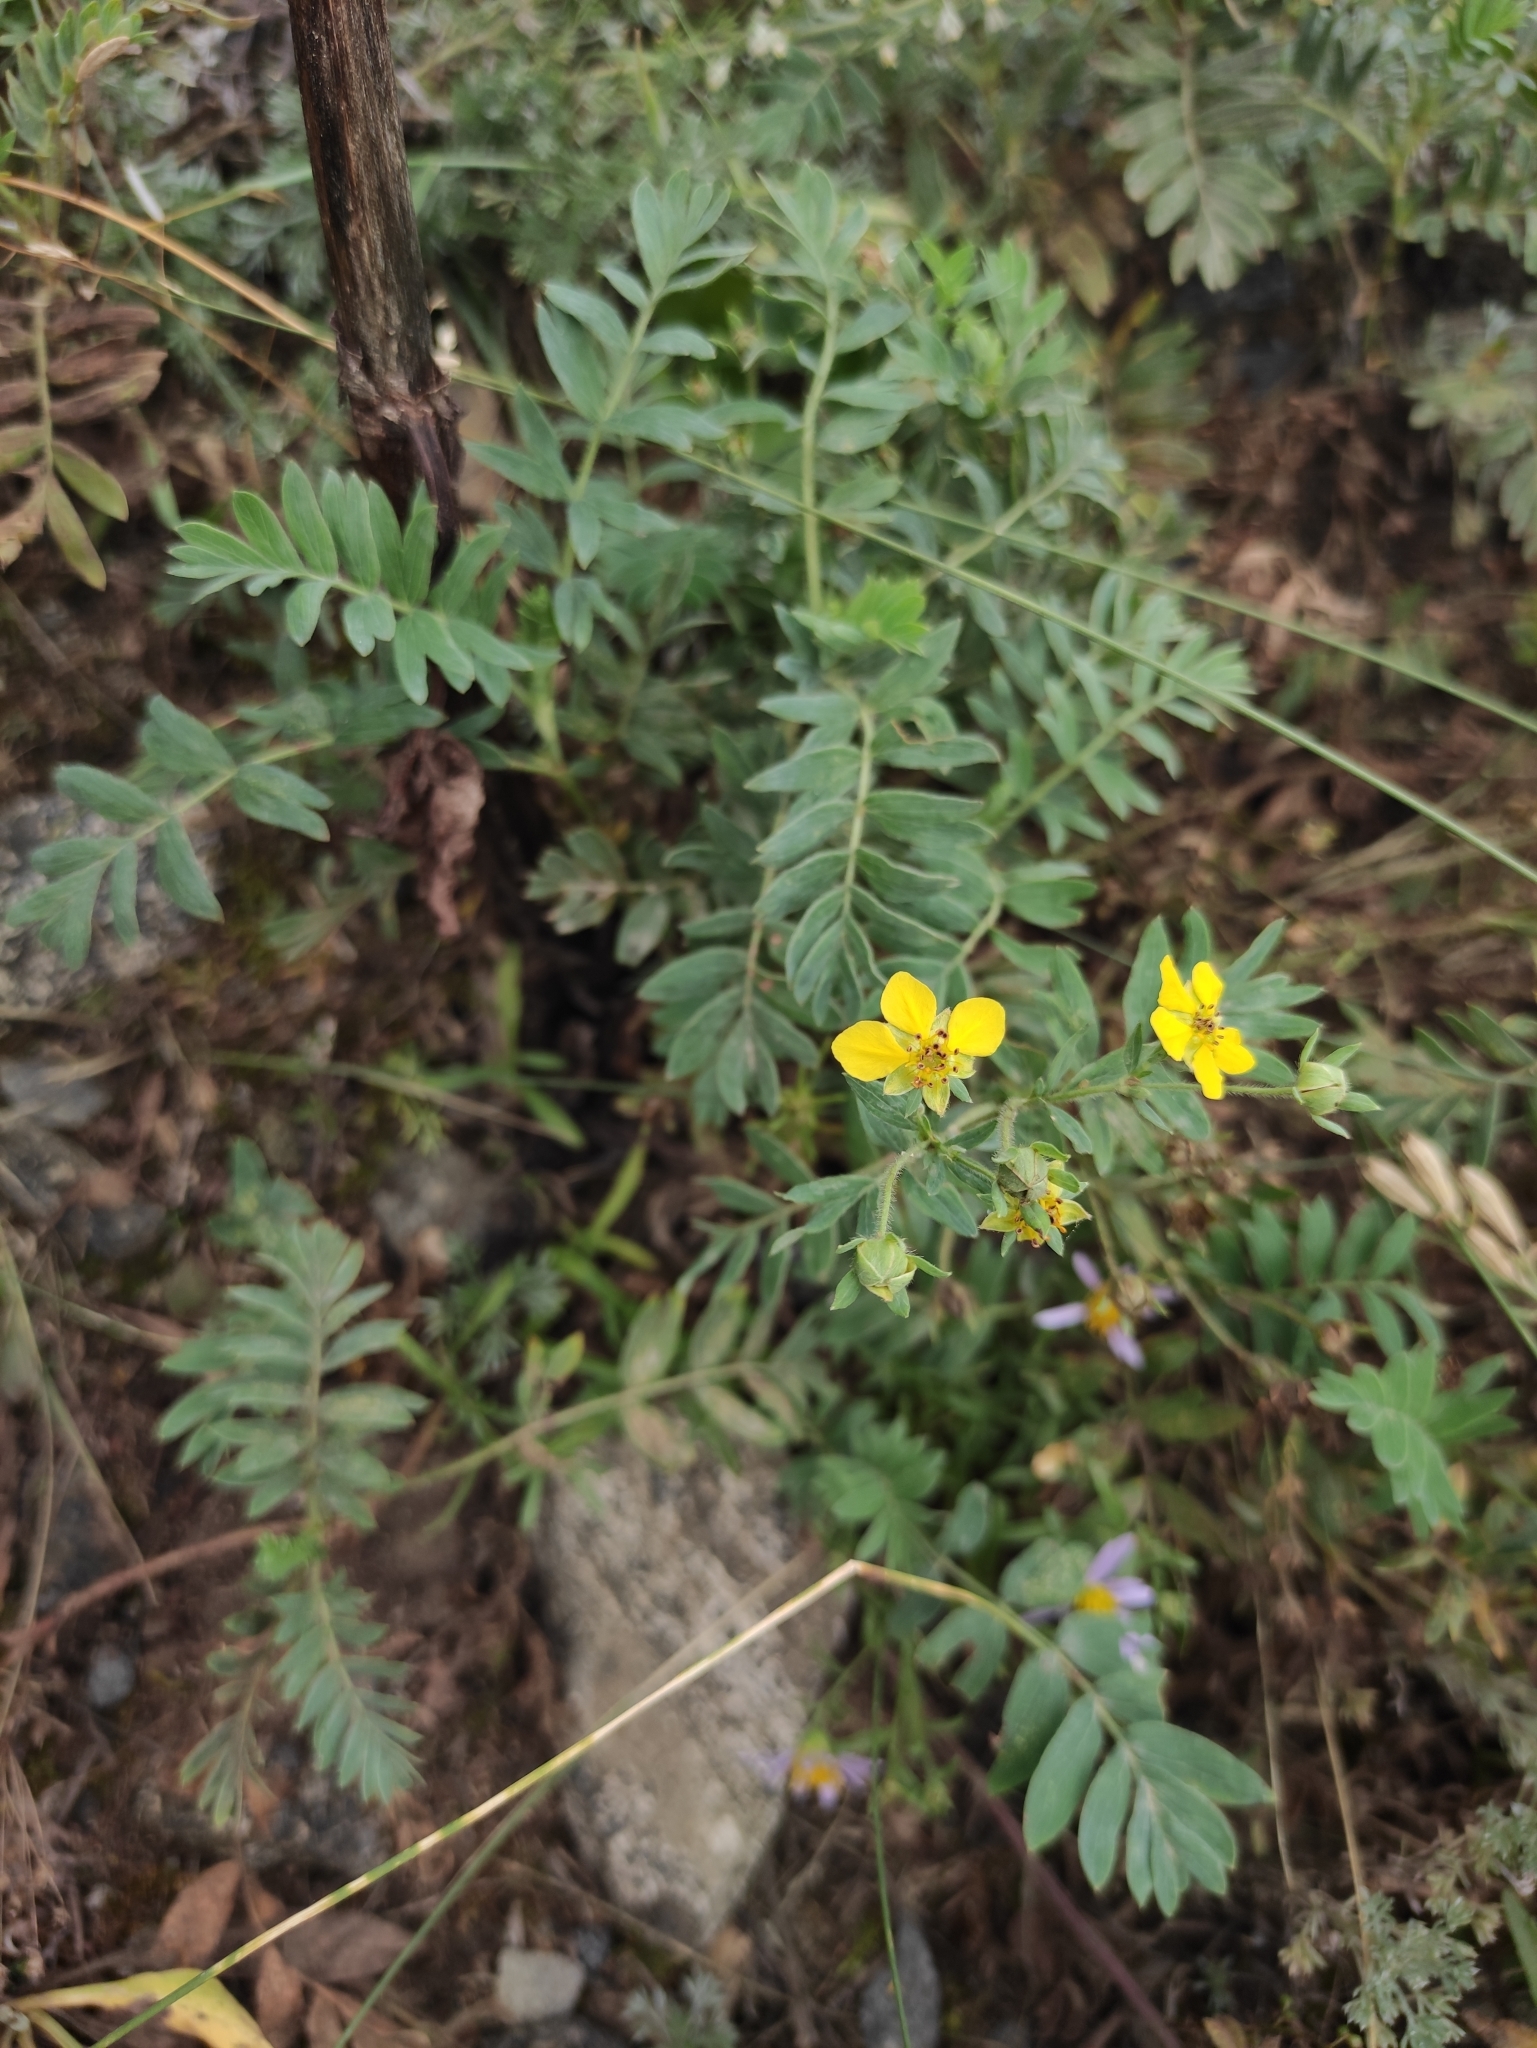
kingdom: Plantae
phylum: Tracheophyta
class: Magnoliopsida
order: Rosales
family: Rosaceae
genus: Sibbaldianthe
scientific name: Sibbaldianthe bifurca
